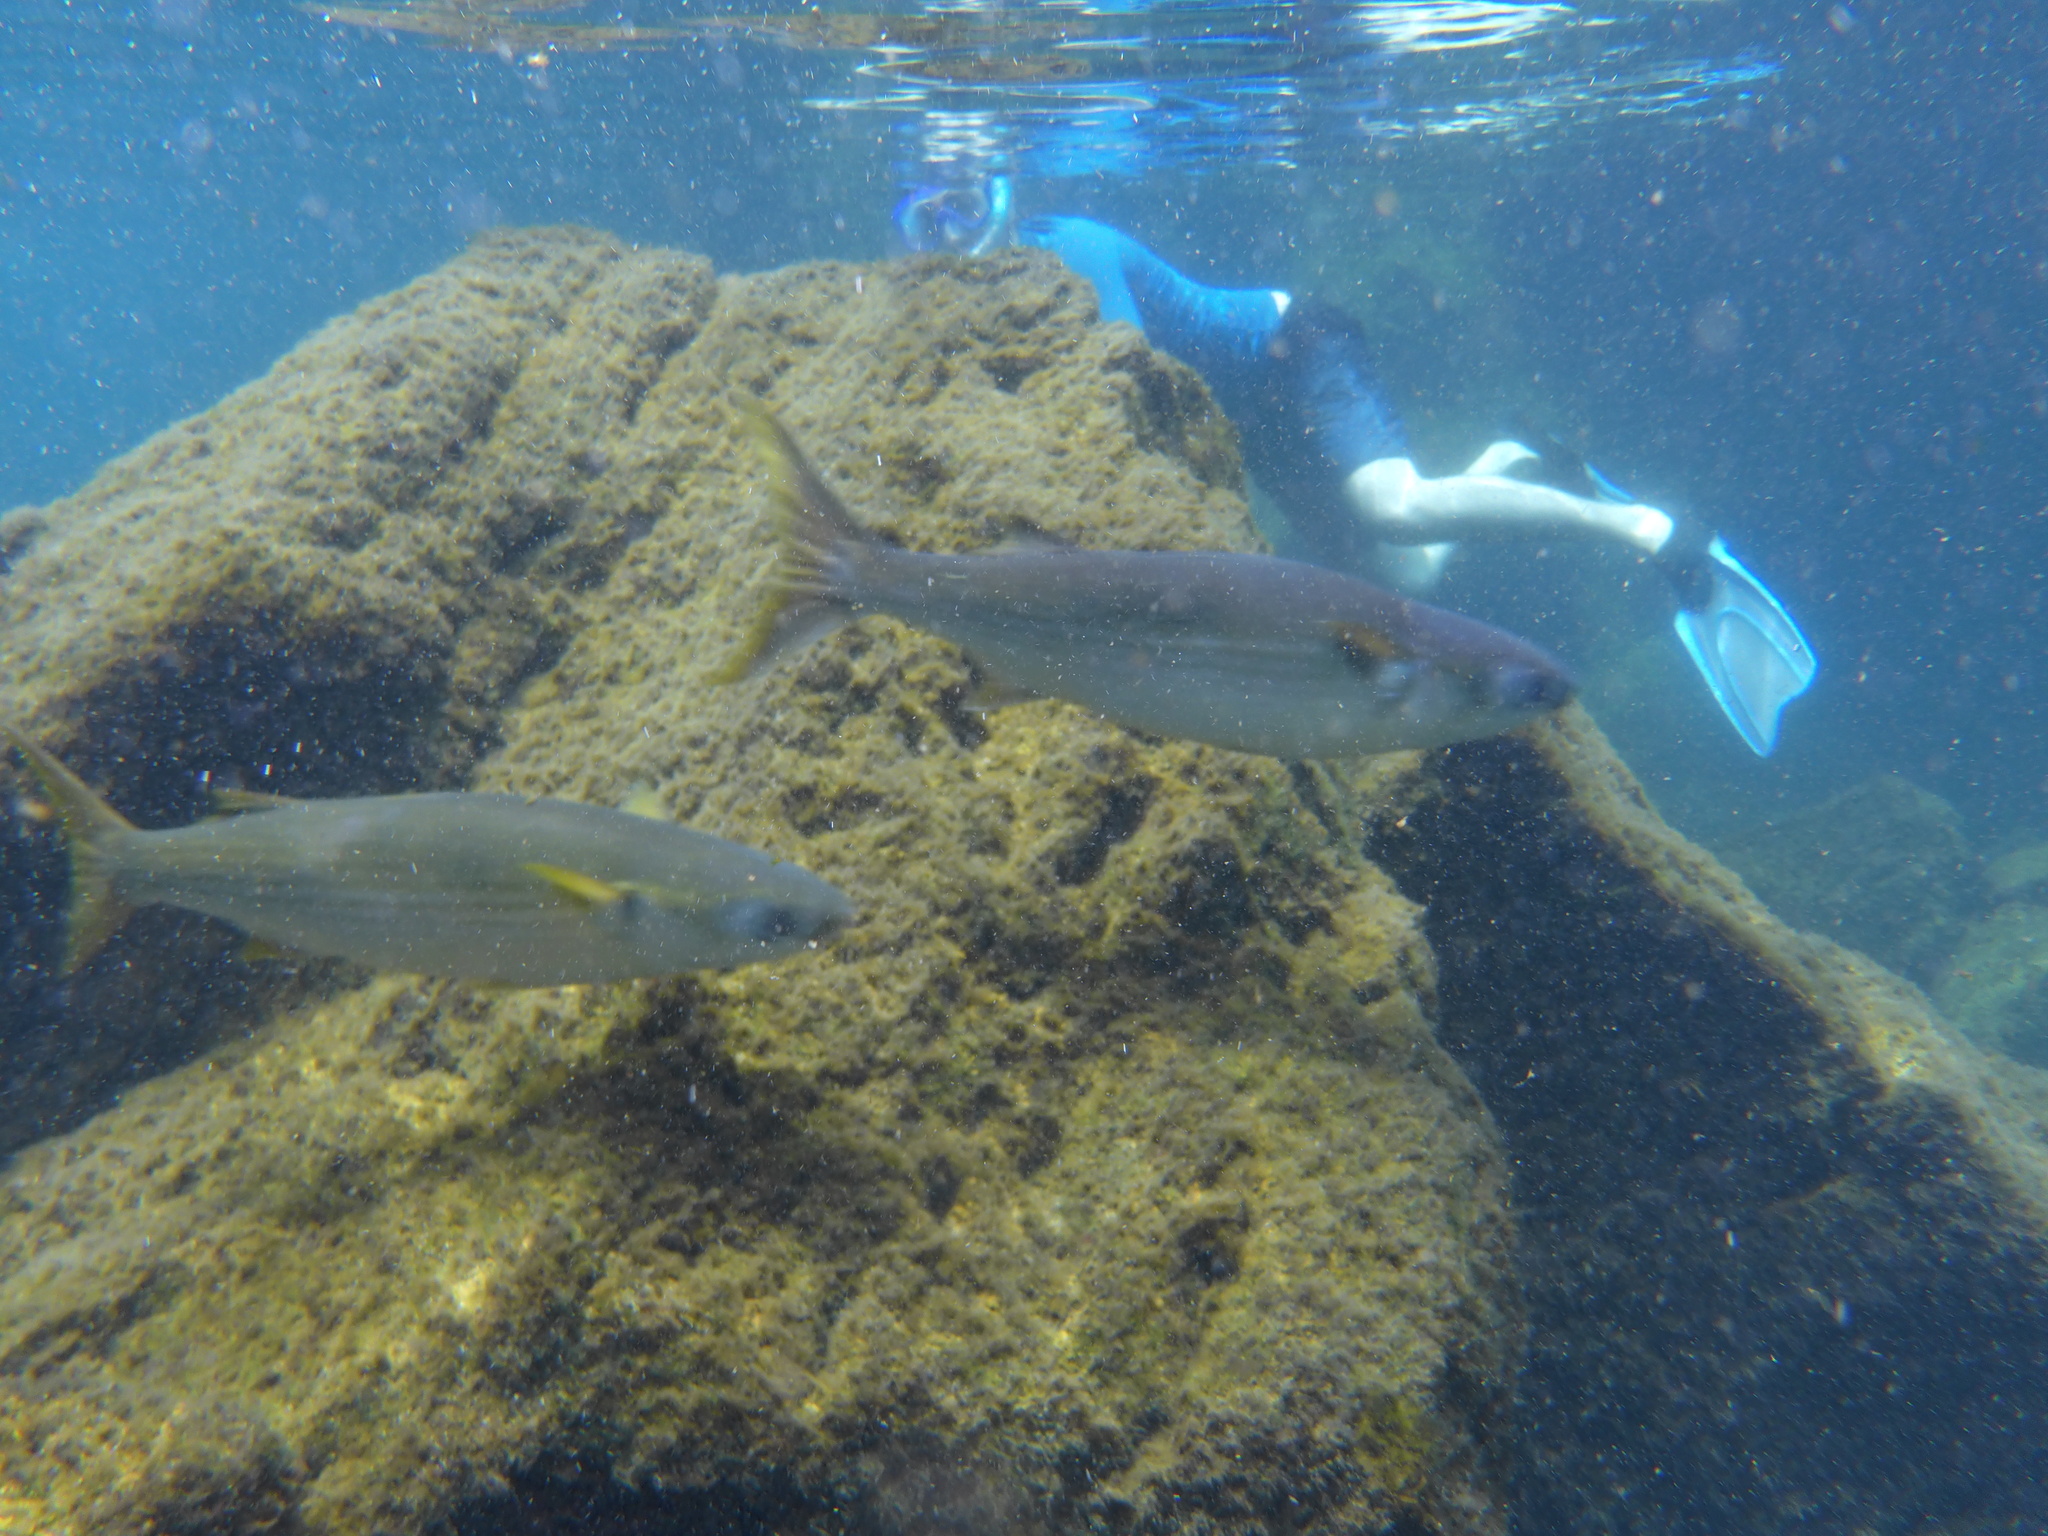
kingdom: Animalia
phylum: Chordata
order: Mugiliformes
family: Mugilidae
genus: Mugil
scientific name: Mugil cephalus
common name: Grey mullet
